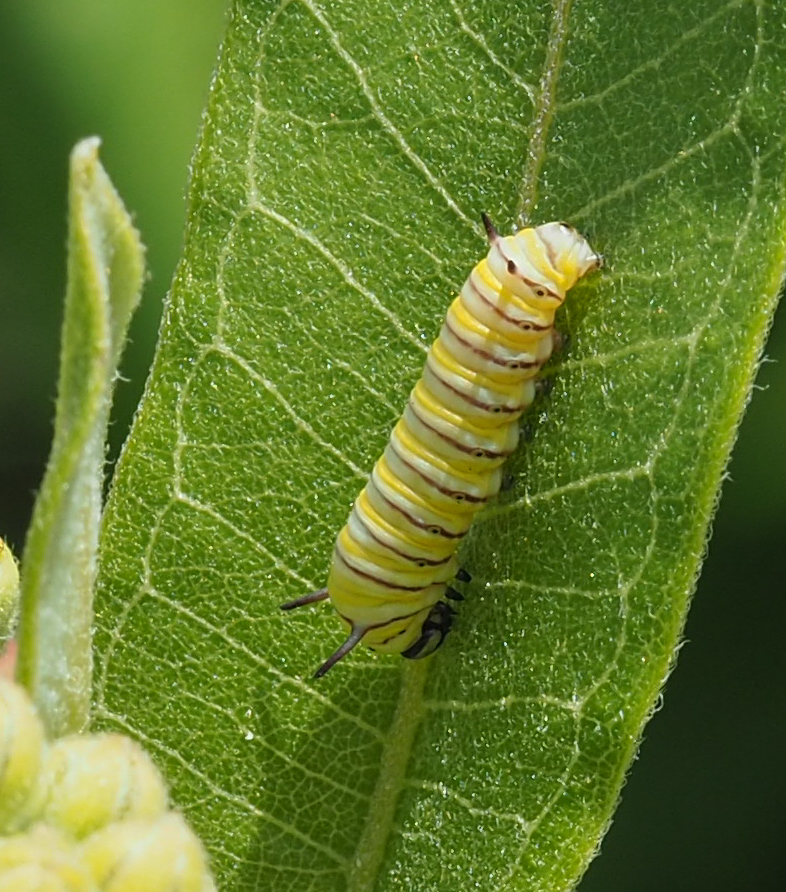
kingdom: Animalia
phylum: Arthropoda
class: Insecta
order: Lepidoptera
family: Nymphalidae
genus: Danaus
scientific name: Danaus plexippus
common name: Monarch
